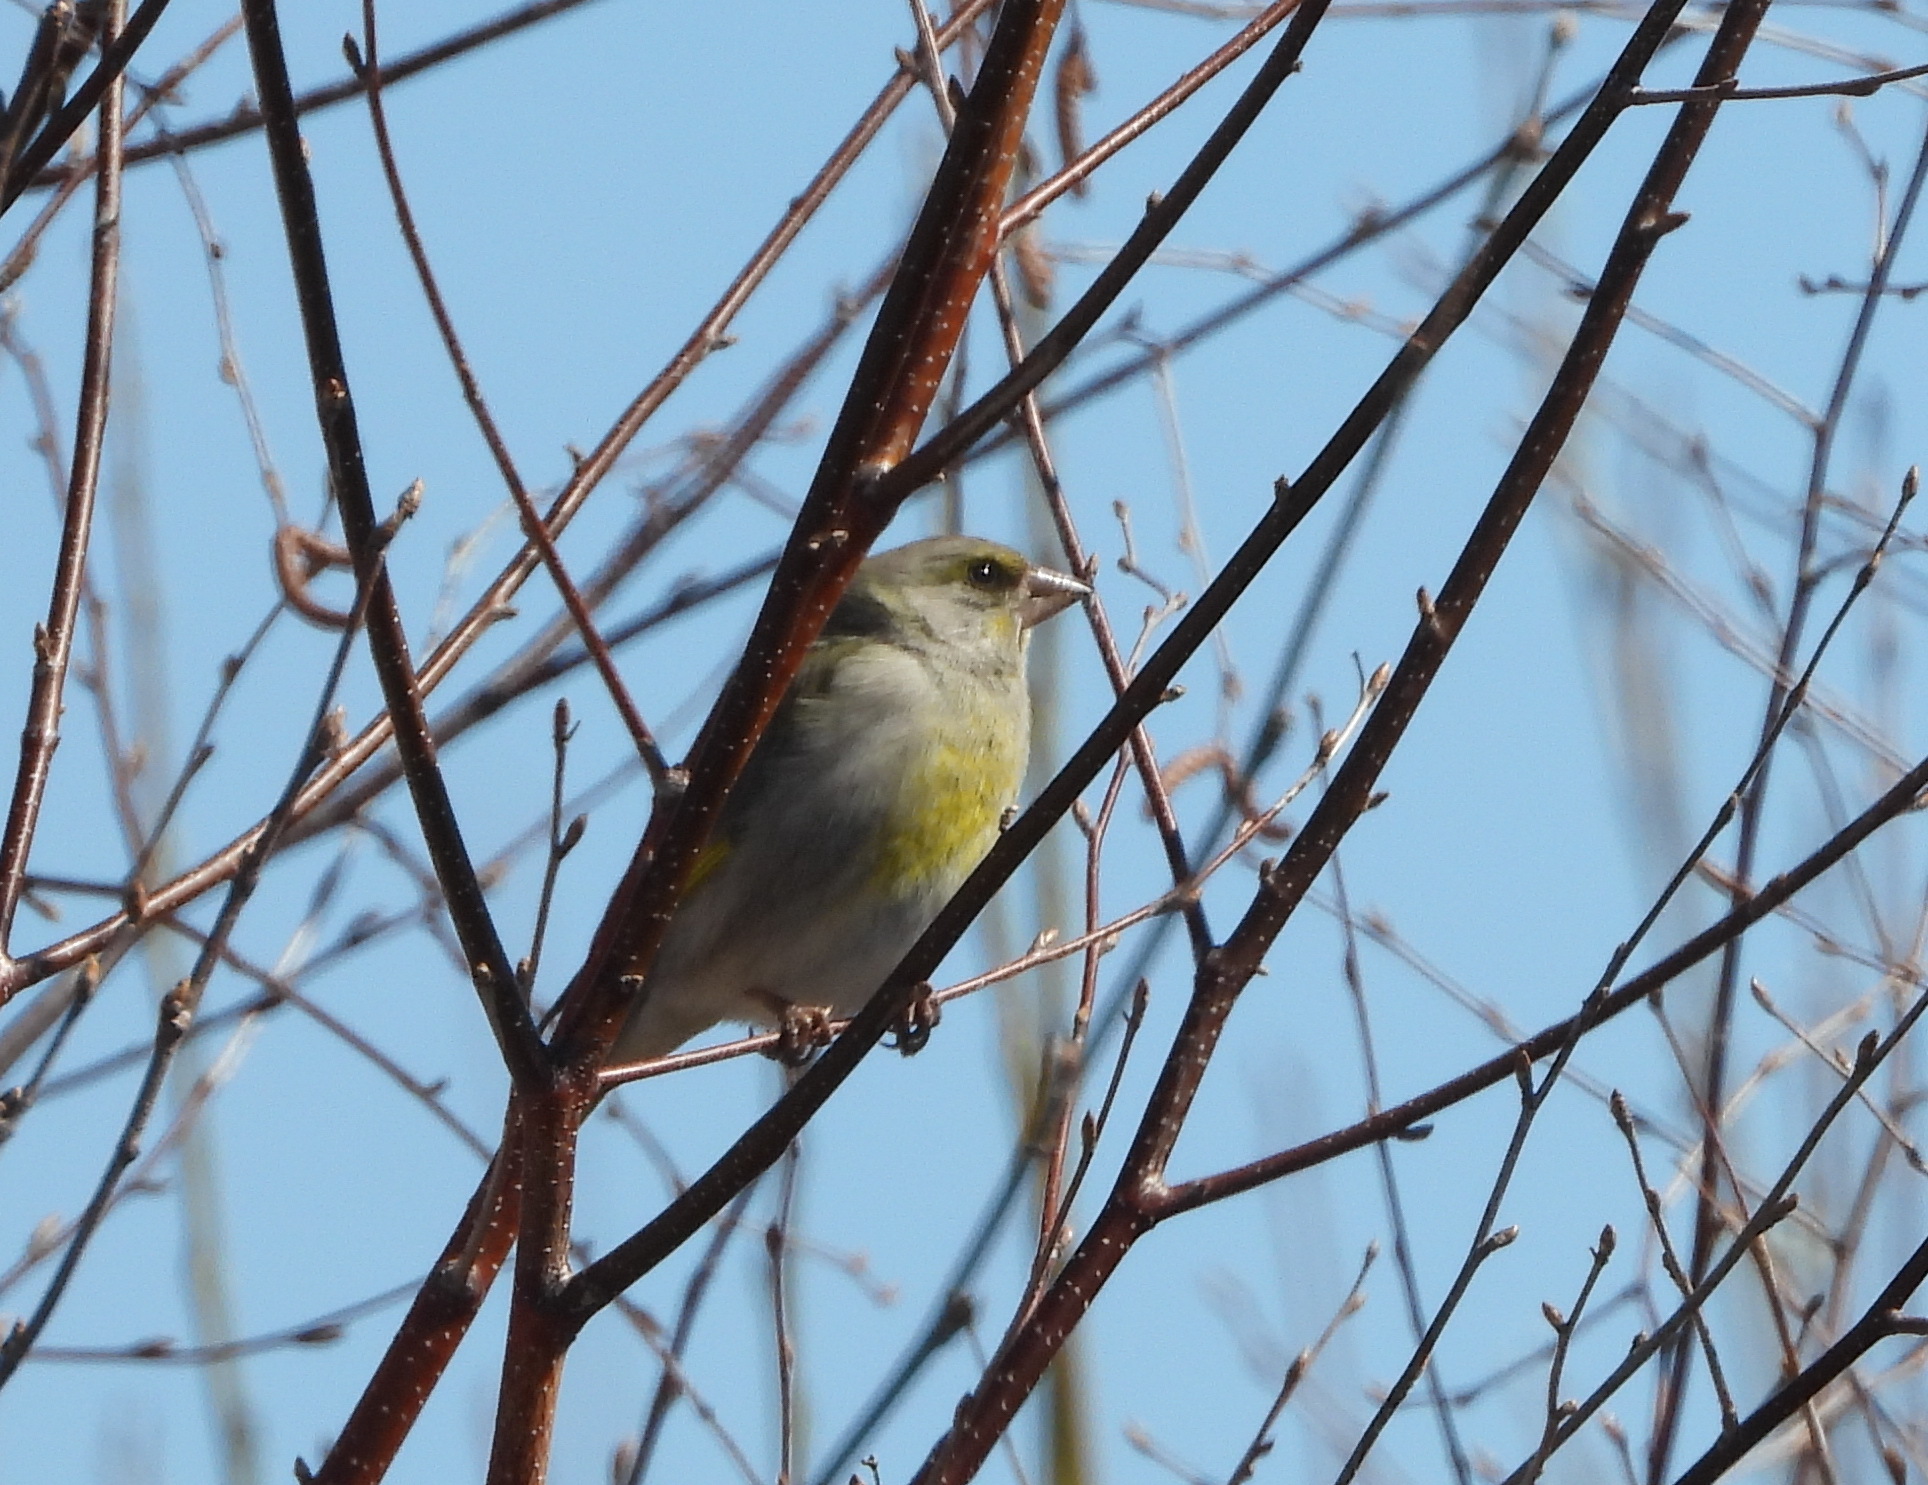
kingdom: Plantae
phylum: Tracheophyta
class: Liliopsida
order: Poales
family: Poaceae
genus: Chloris
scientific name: Chloris chloris
